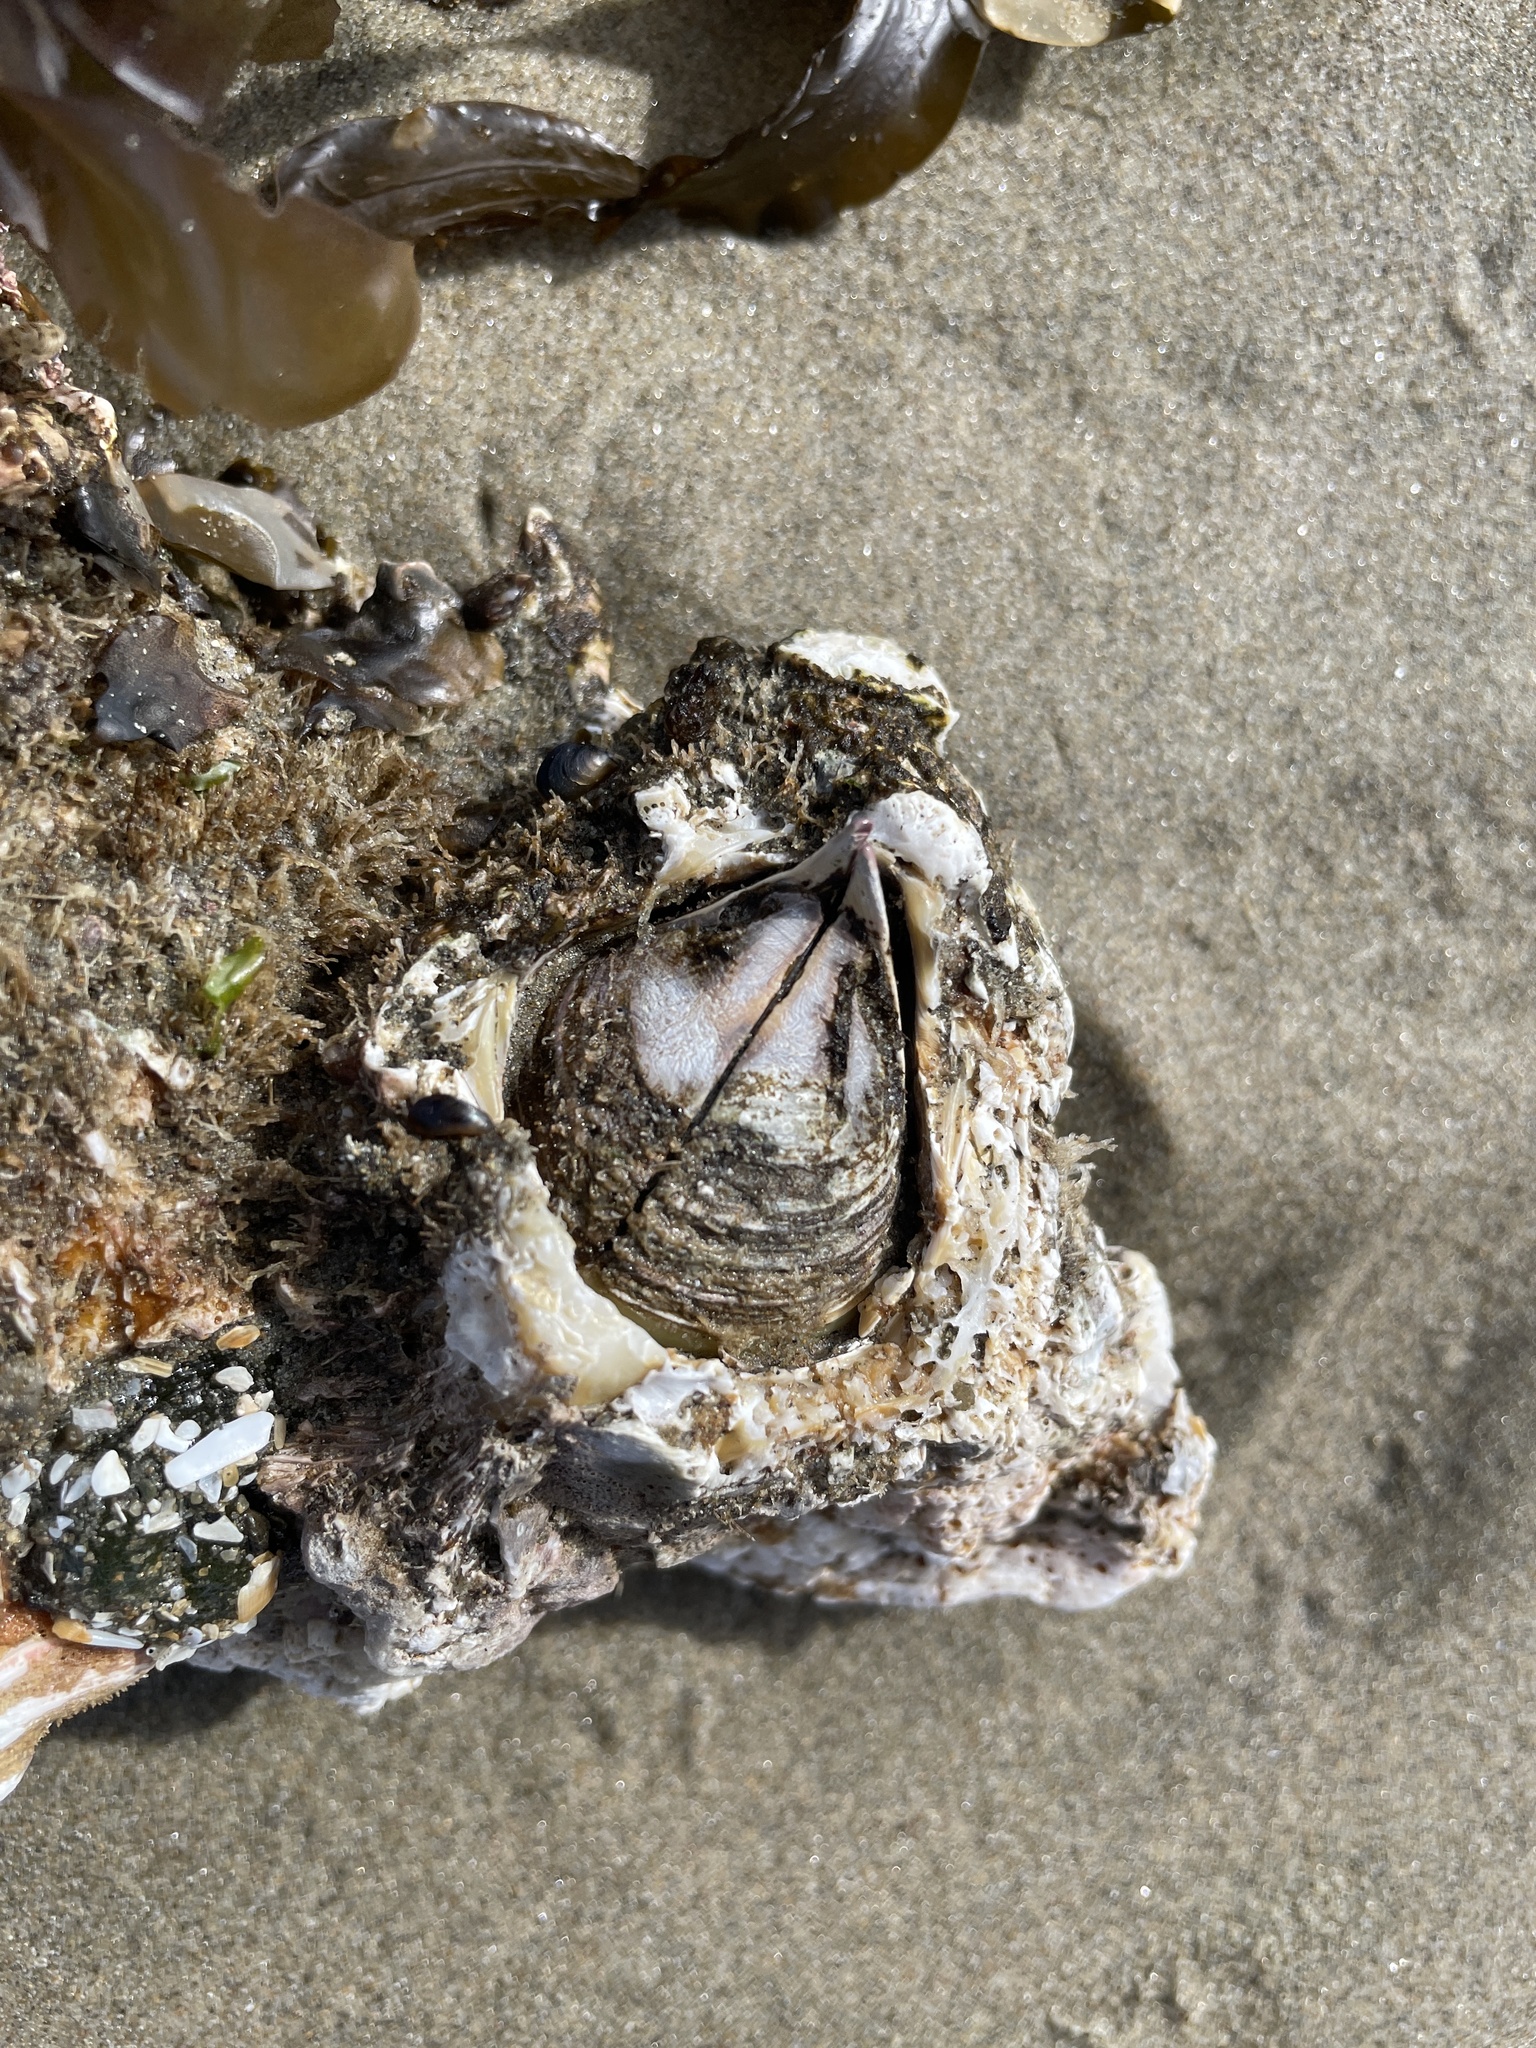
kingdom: Animalia
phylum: Arthropoda
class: Maxillopoda
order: Sessilia
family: Balanidae
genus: Balanus
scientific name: Balanus nubilus
